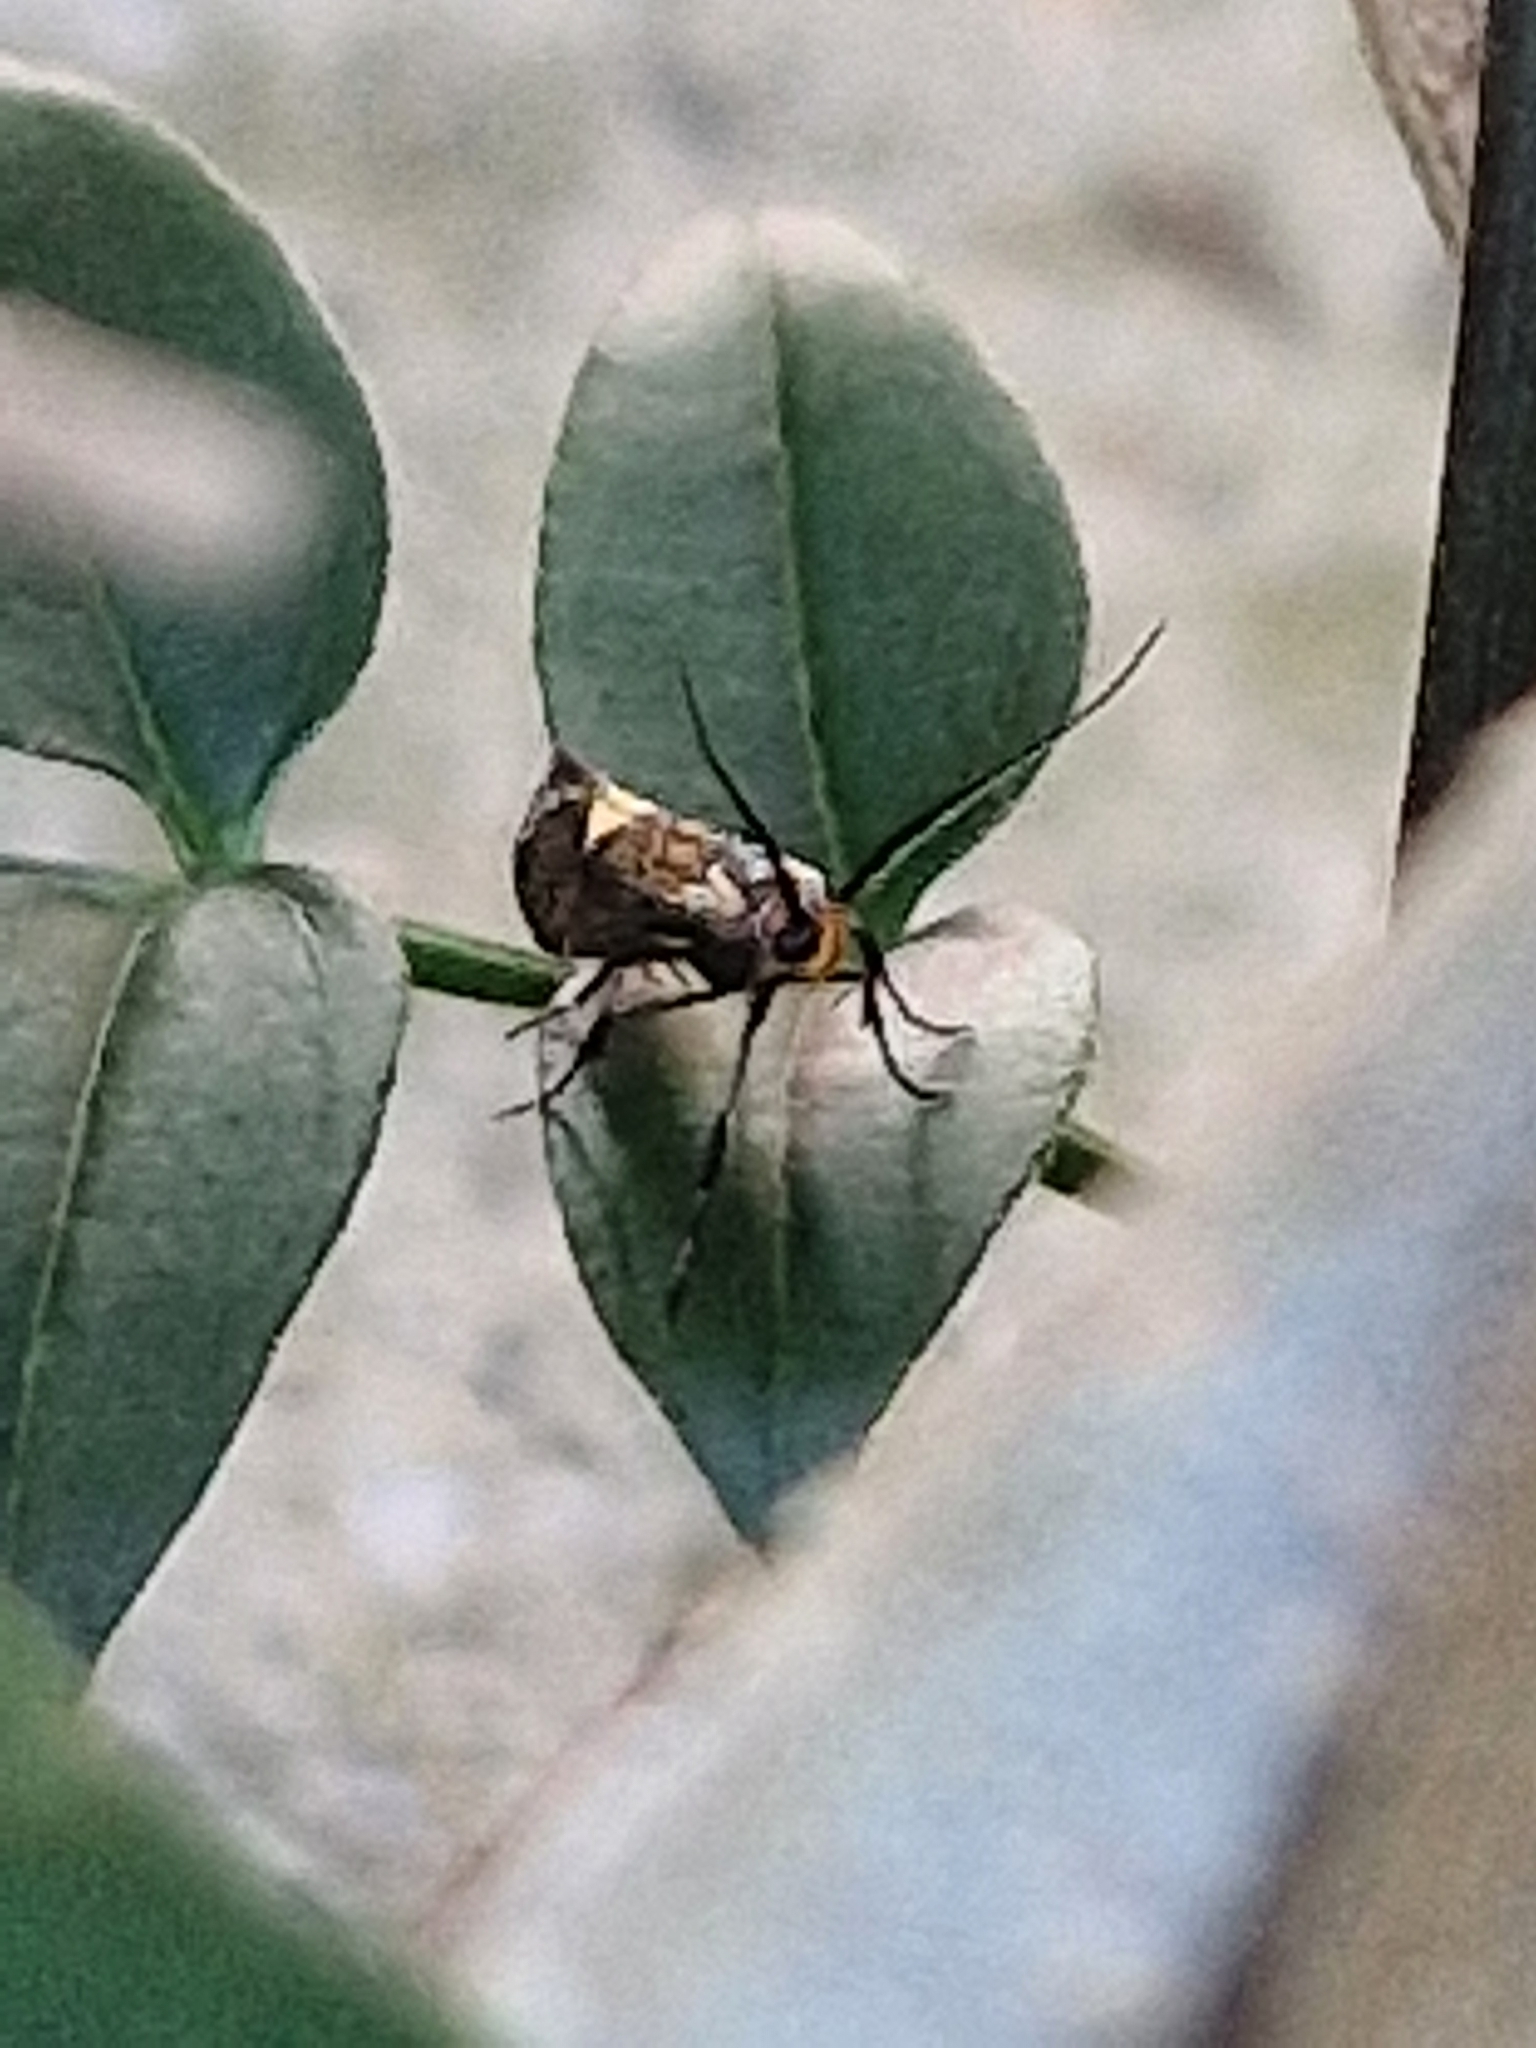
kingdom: Animalia
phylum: Arthropoda
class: Insecta
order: Lepidoptera
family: Oecophoridae
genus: Dafa
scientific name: Dafa Esperia sulphurella
